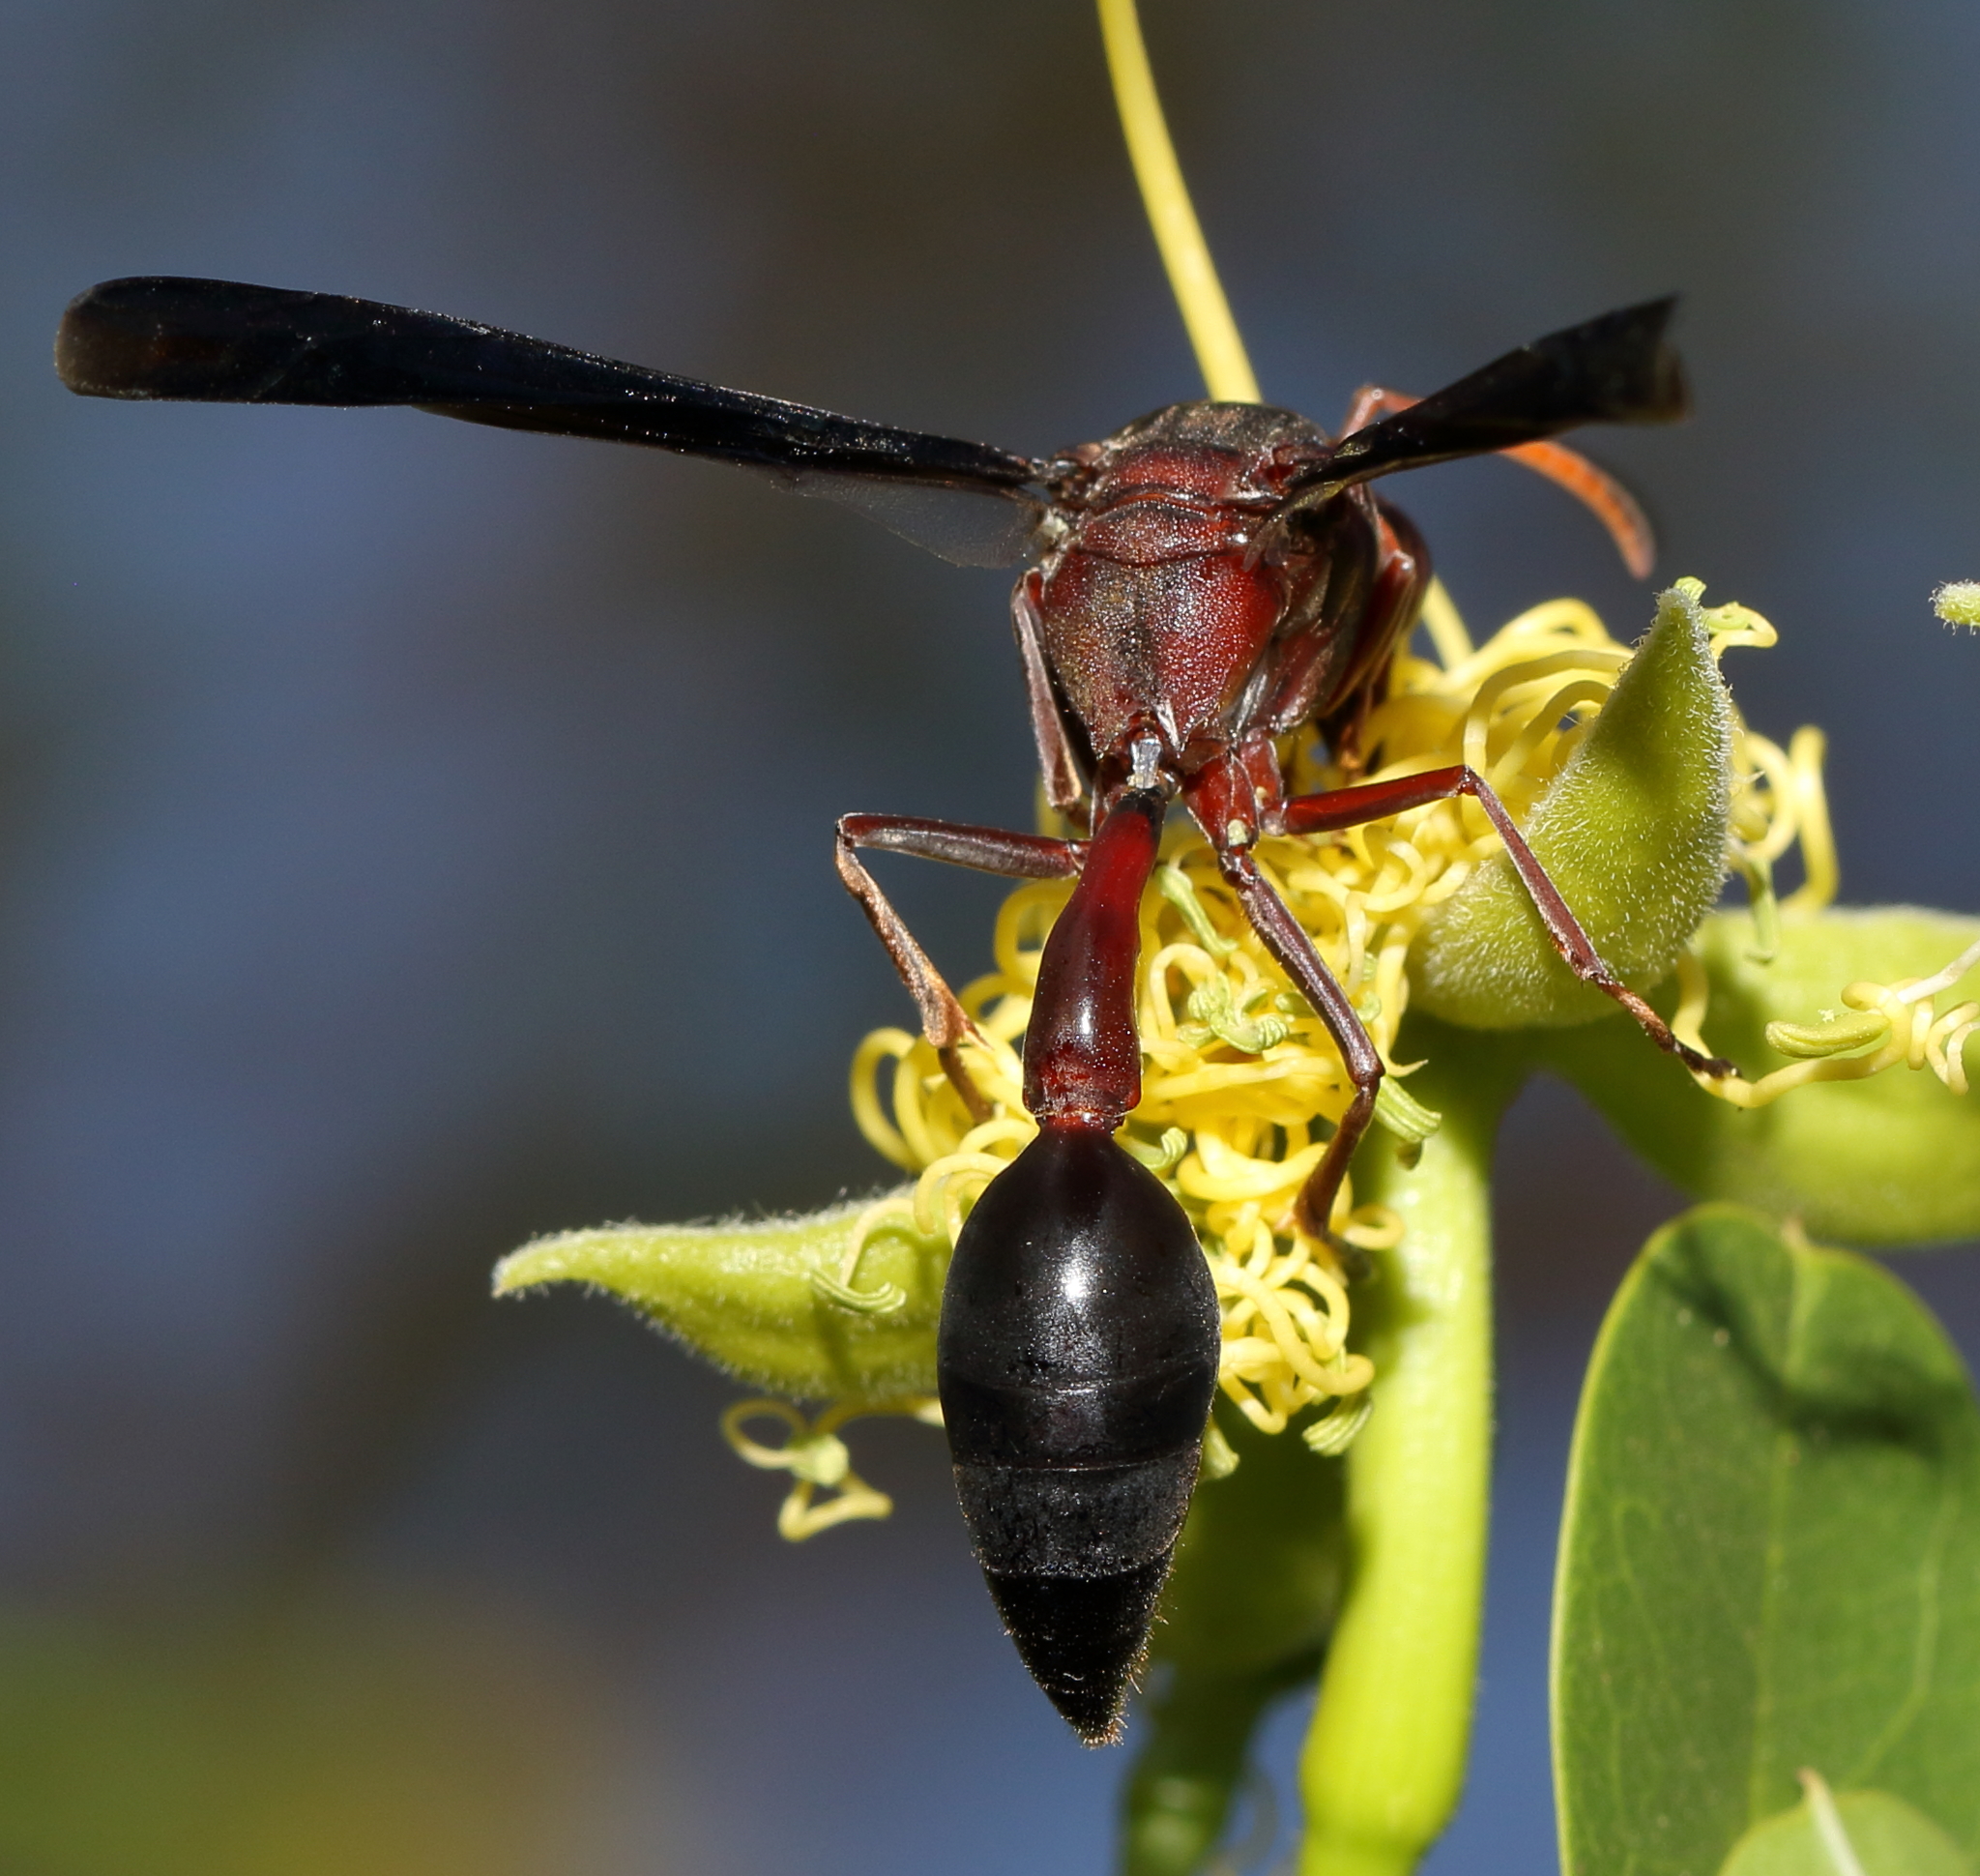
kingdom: Animalia
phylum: Arthropoda
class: Insecta
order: Hymenoptera
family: Eumenidae
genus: Delta
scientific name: Delta emarginatum
